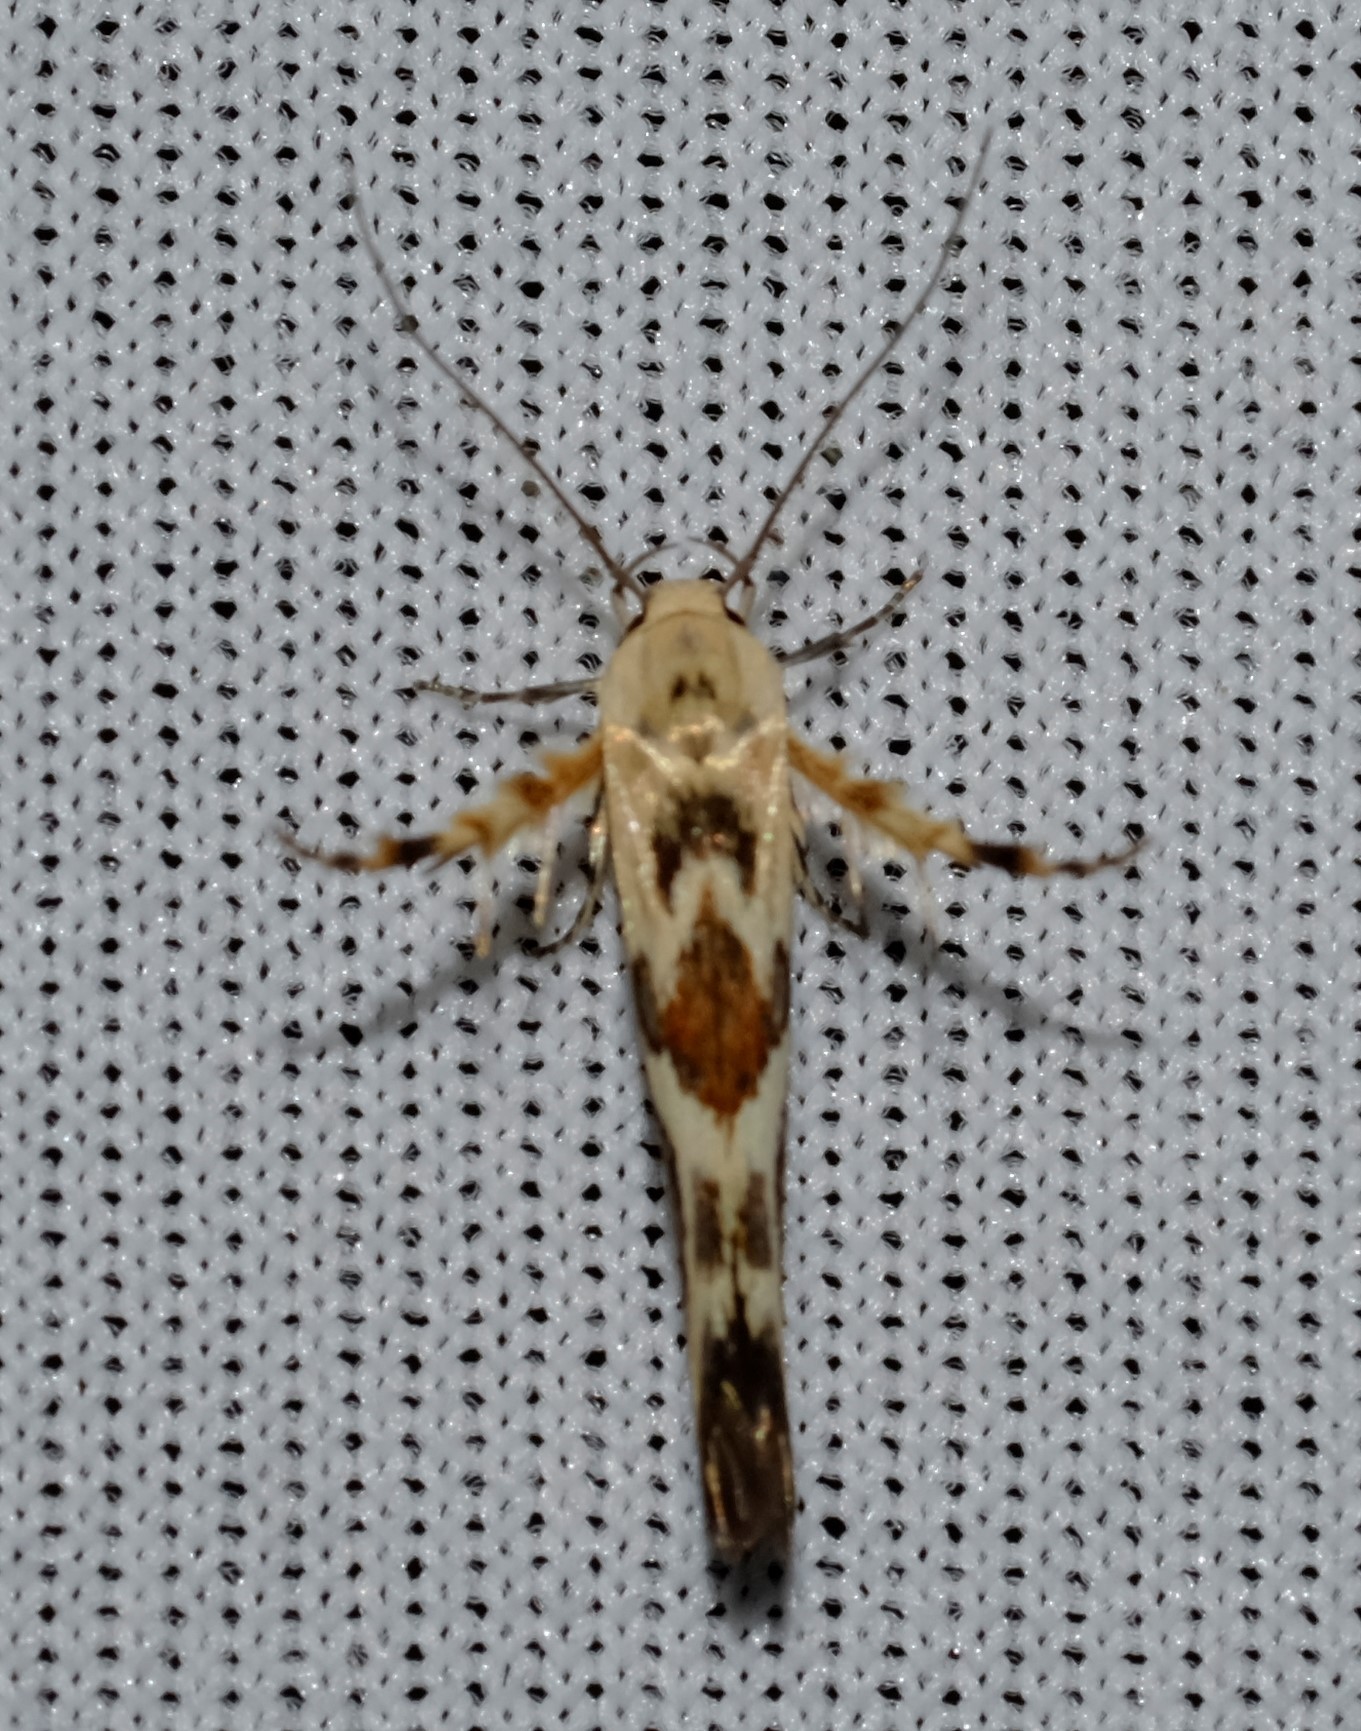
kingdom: Animalia
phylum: Arthropoda
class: Insecta
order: Lepidoptera
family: Stathmopodidae
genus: Stathmopoda
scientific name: Stathmopoda melanochra
